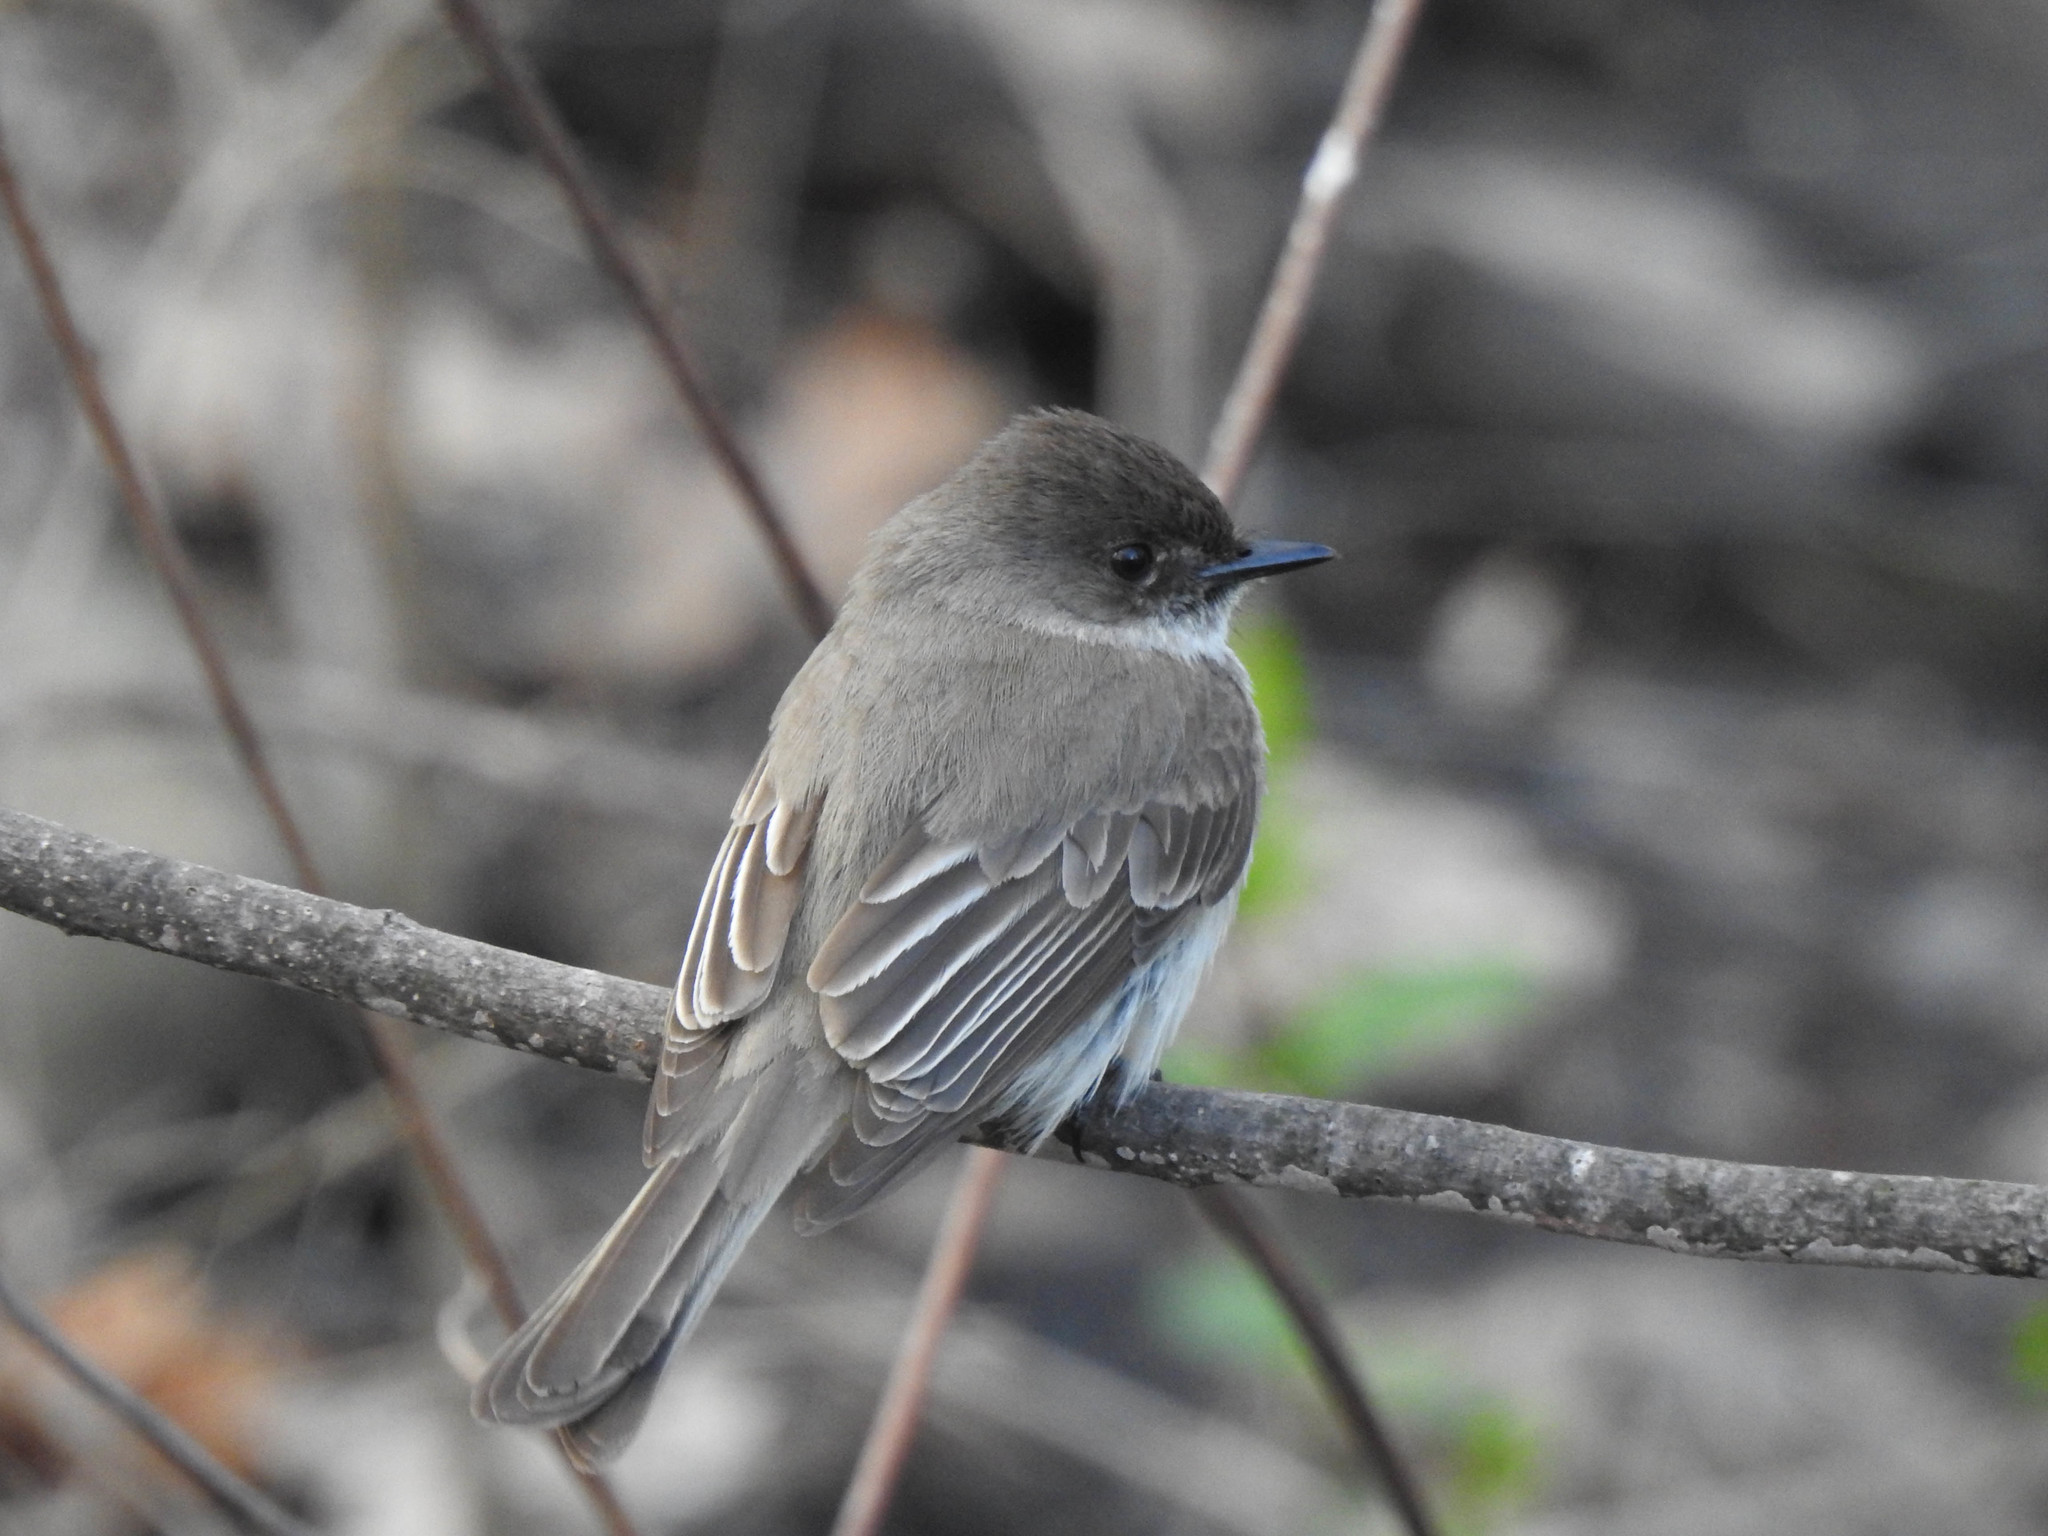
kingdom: Animalia
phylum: Chordata
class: Aves
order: Passeriformes
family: Tyrannidae
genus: Sayornis
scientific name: Sayornis phoebe
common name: Eastern phoebe
